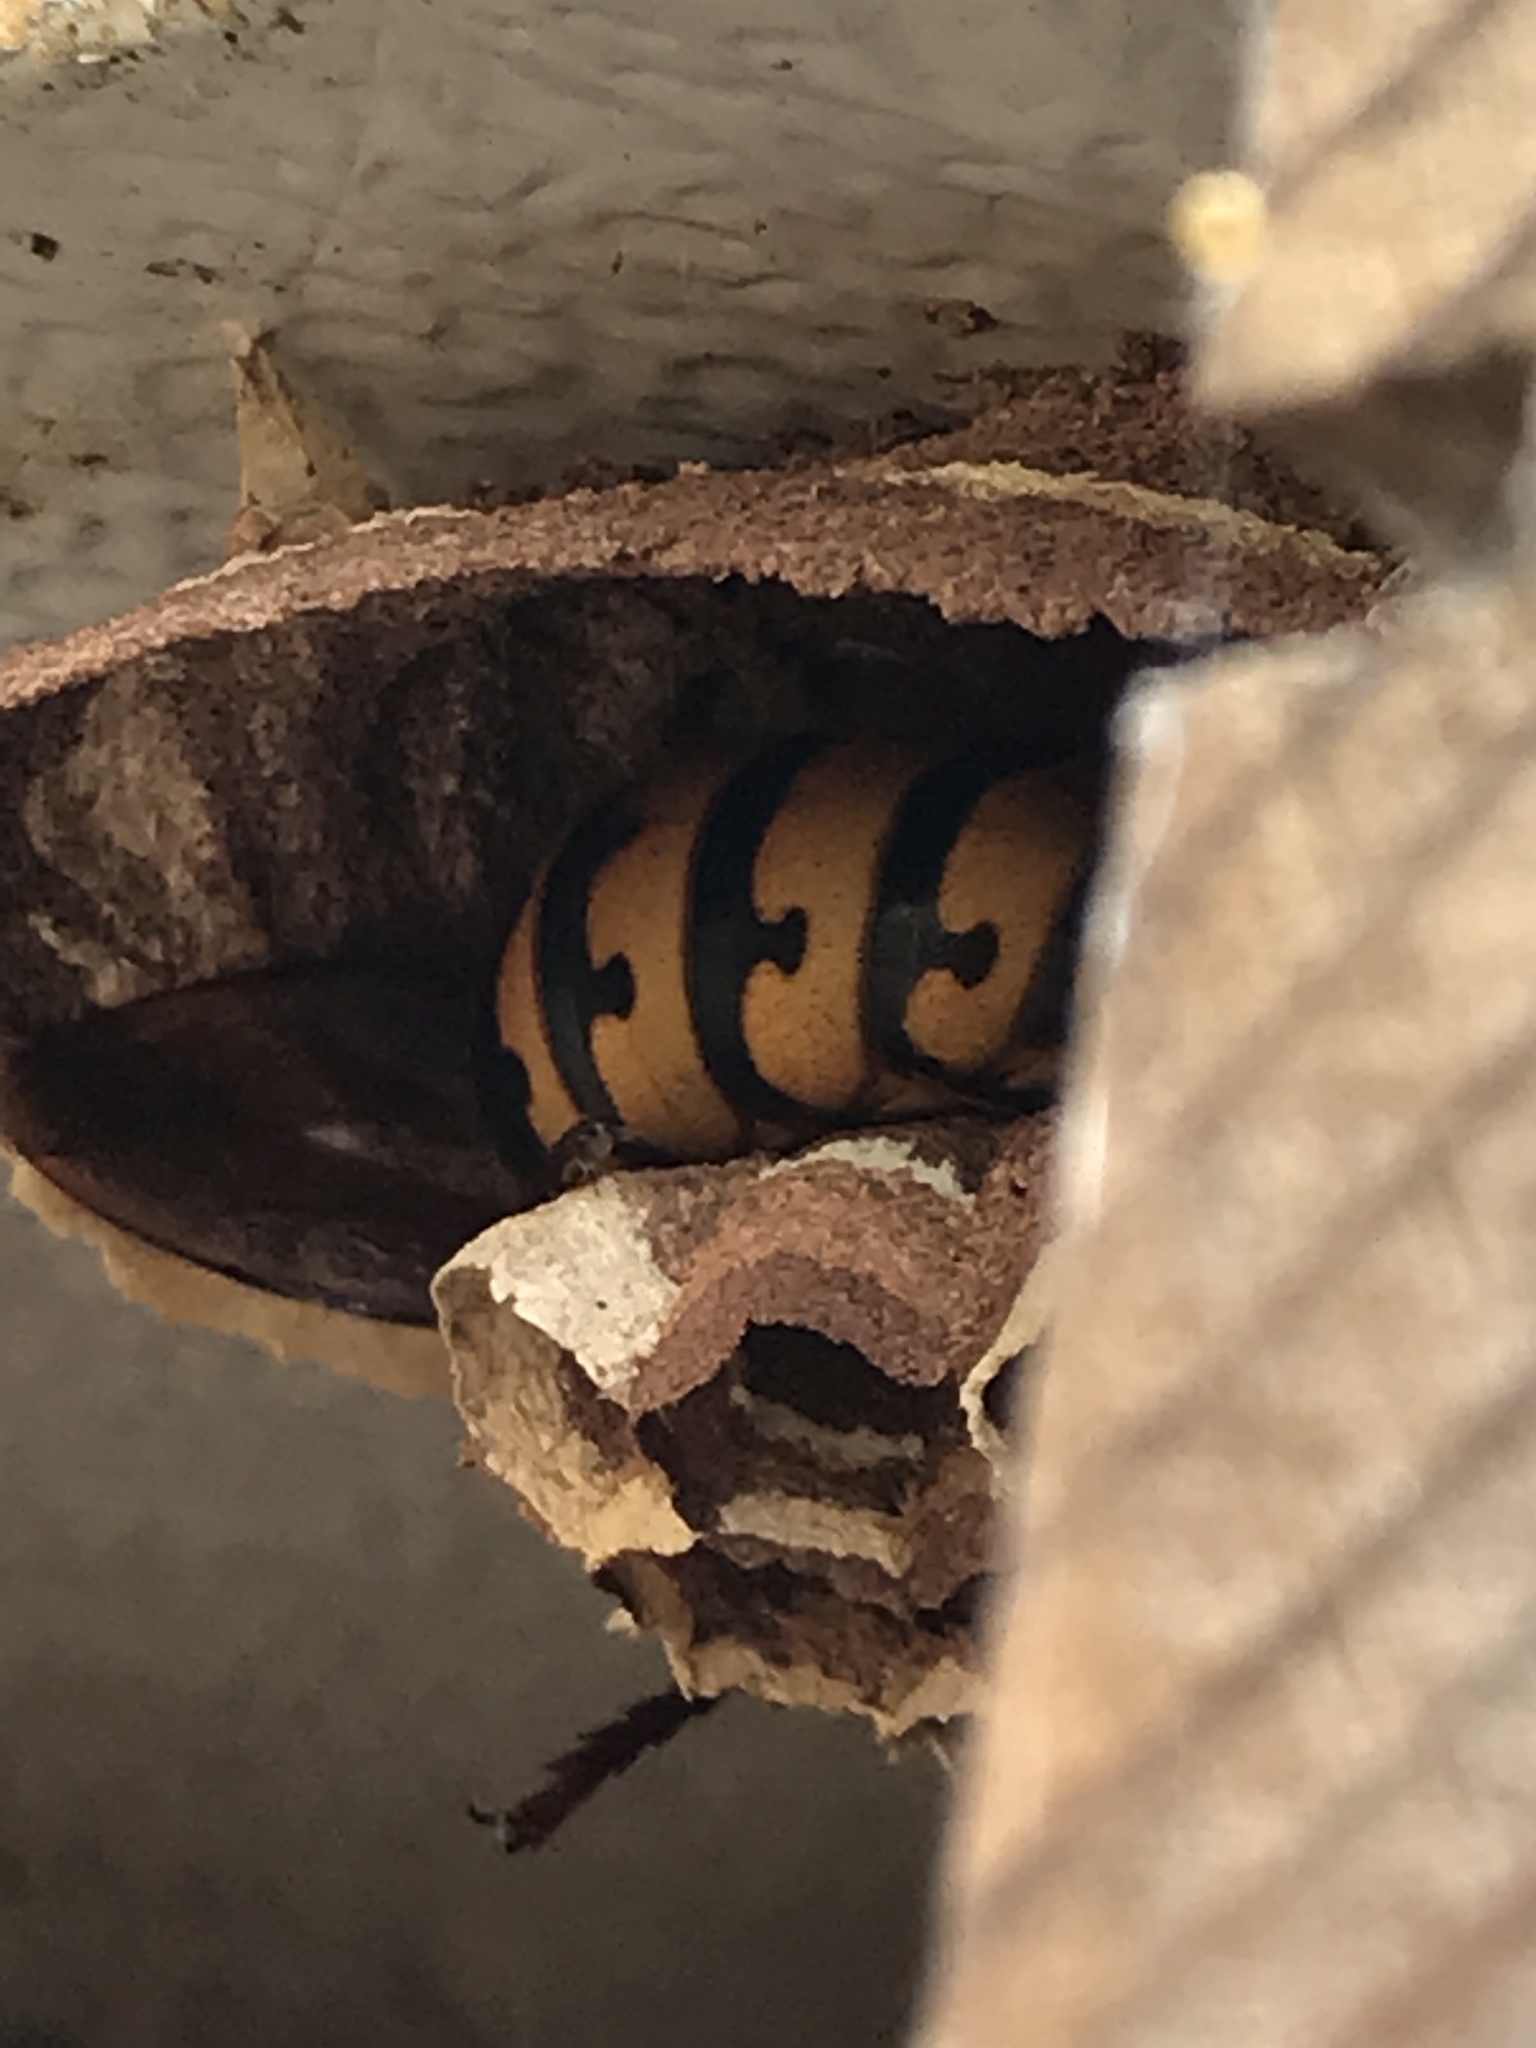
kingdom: Animalia
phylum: Arthropoda
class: Insecta
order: Hymenoptera
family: Vespidae
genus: Vespa
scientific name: Vespa crabro
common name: Hornet
